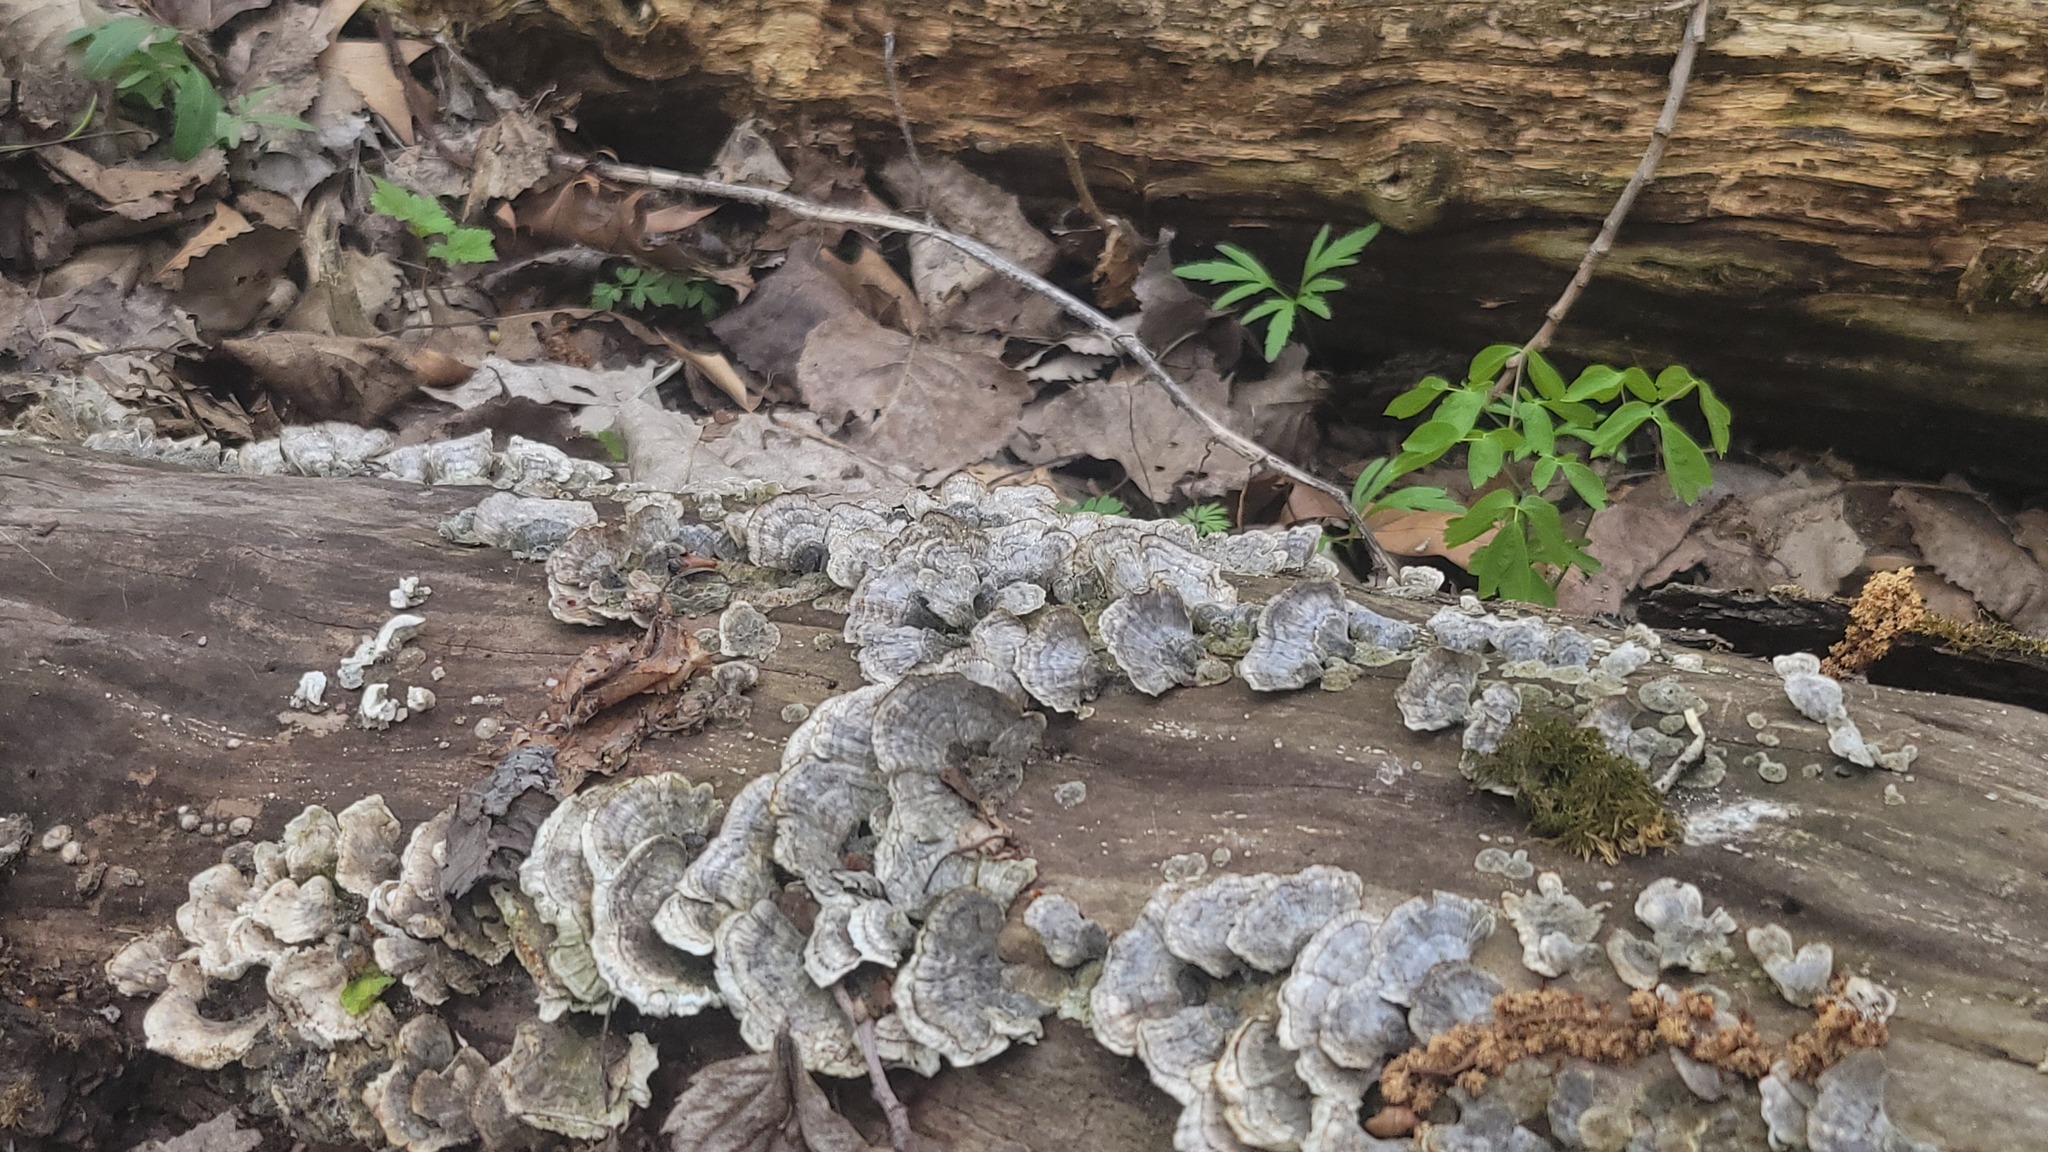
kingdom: Fungi
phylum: Basidiomycota
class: Agaricomycetes
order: Polyporales
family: Polyporaceae
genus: Trametes
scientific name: Trametes versicolor
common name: Turkeytail
